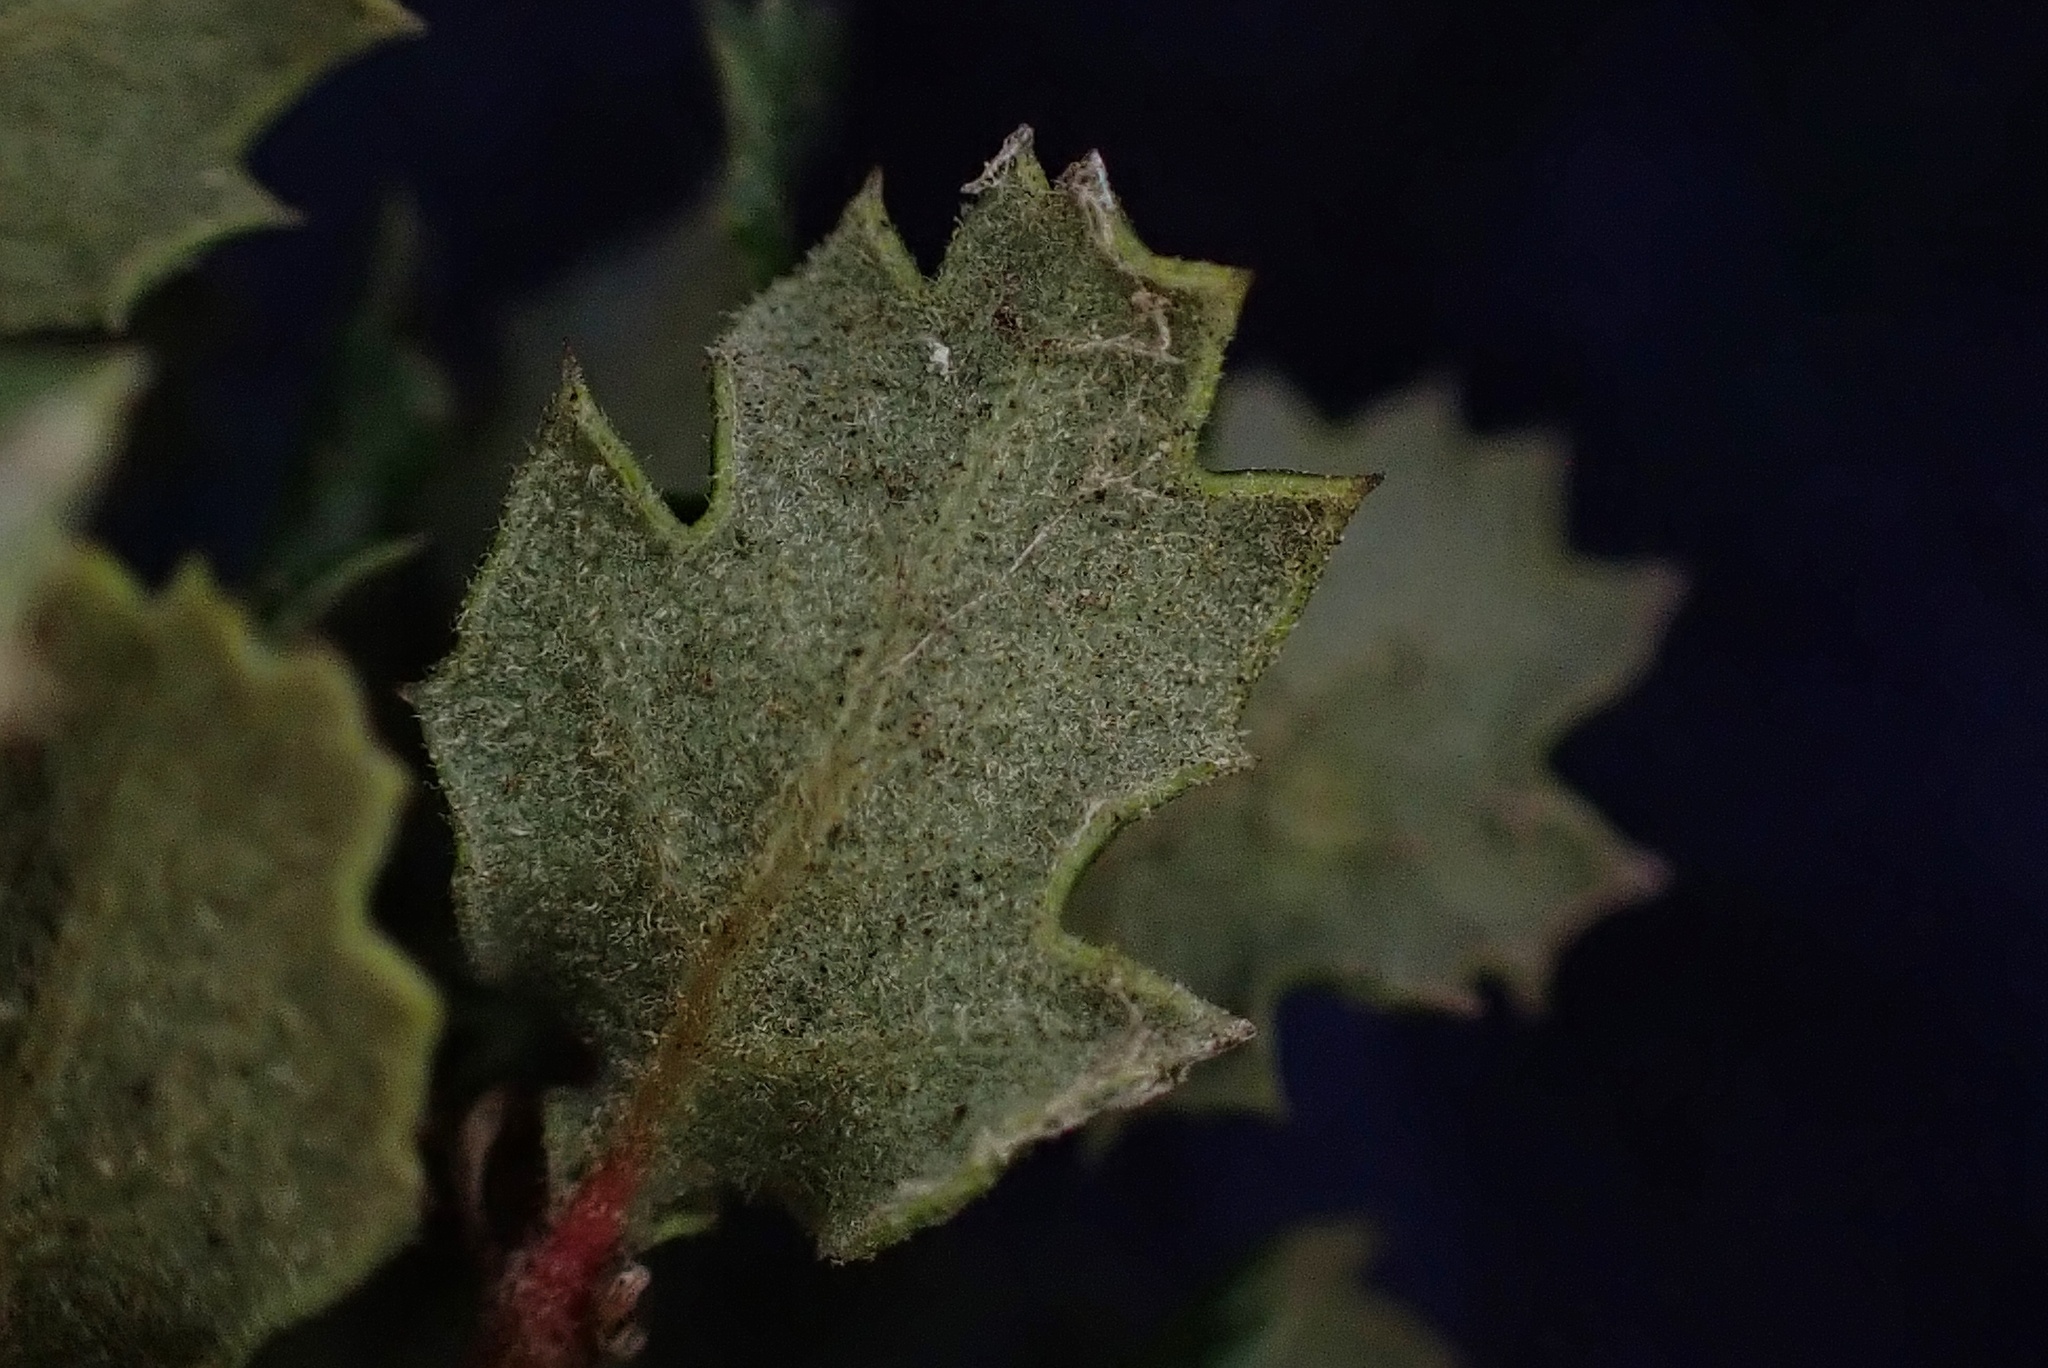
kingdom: Plantae
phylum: Tracheophyta
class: Magnoliopsida
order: Fagales
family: Fagaceae
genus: Quercus
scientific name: Quercus dumosa
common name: Coastal sage scrub oak
